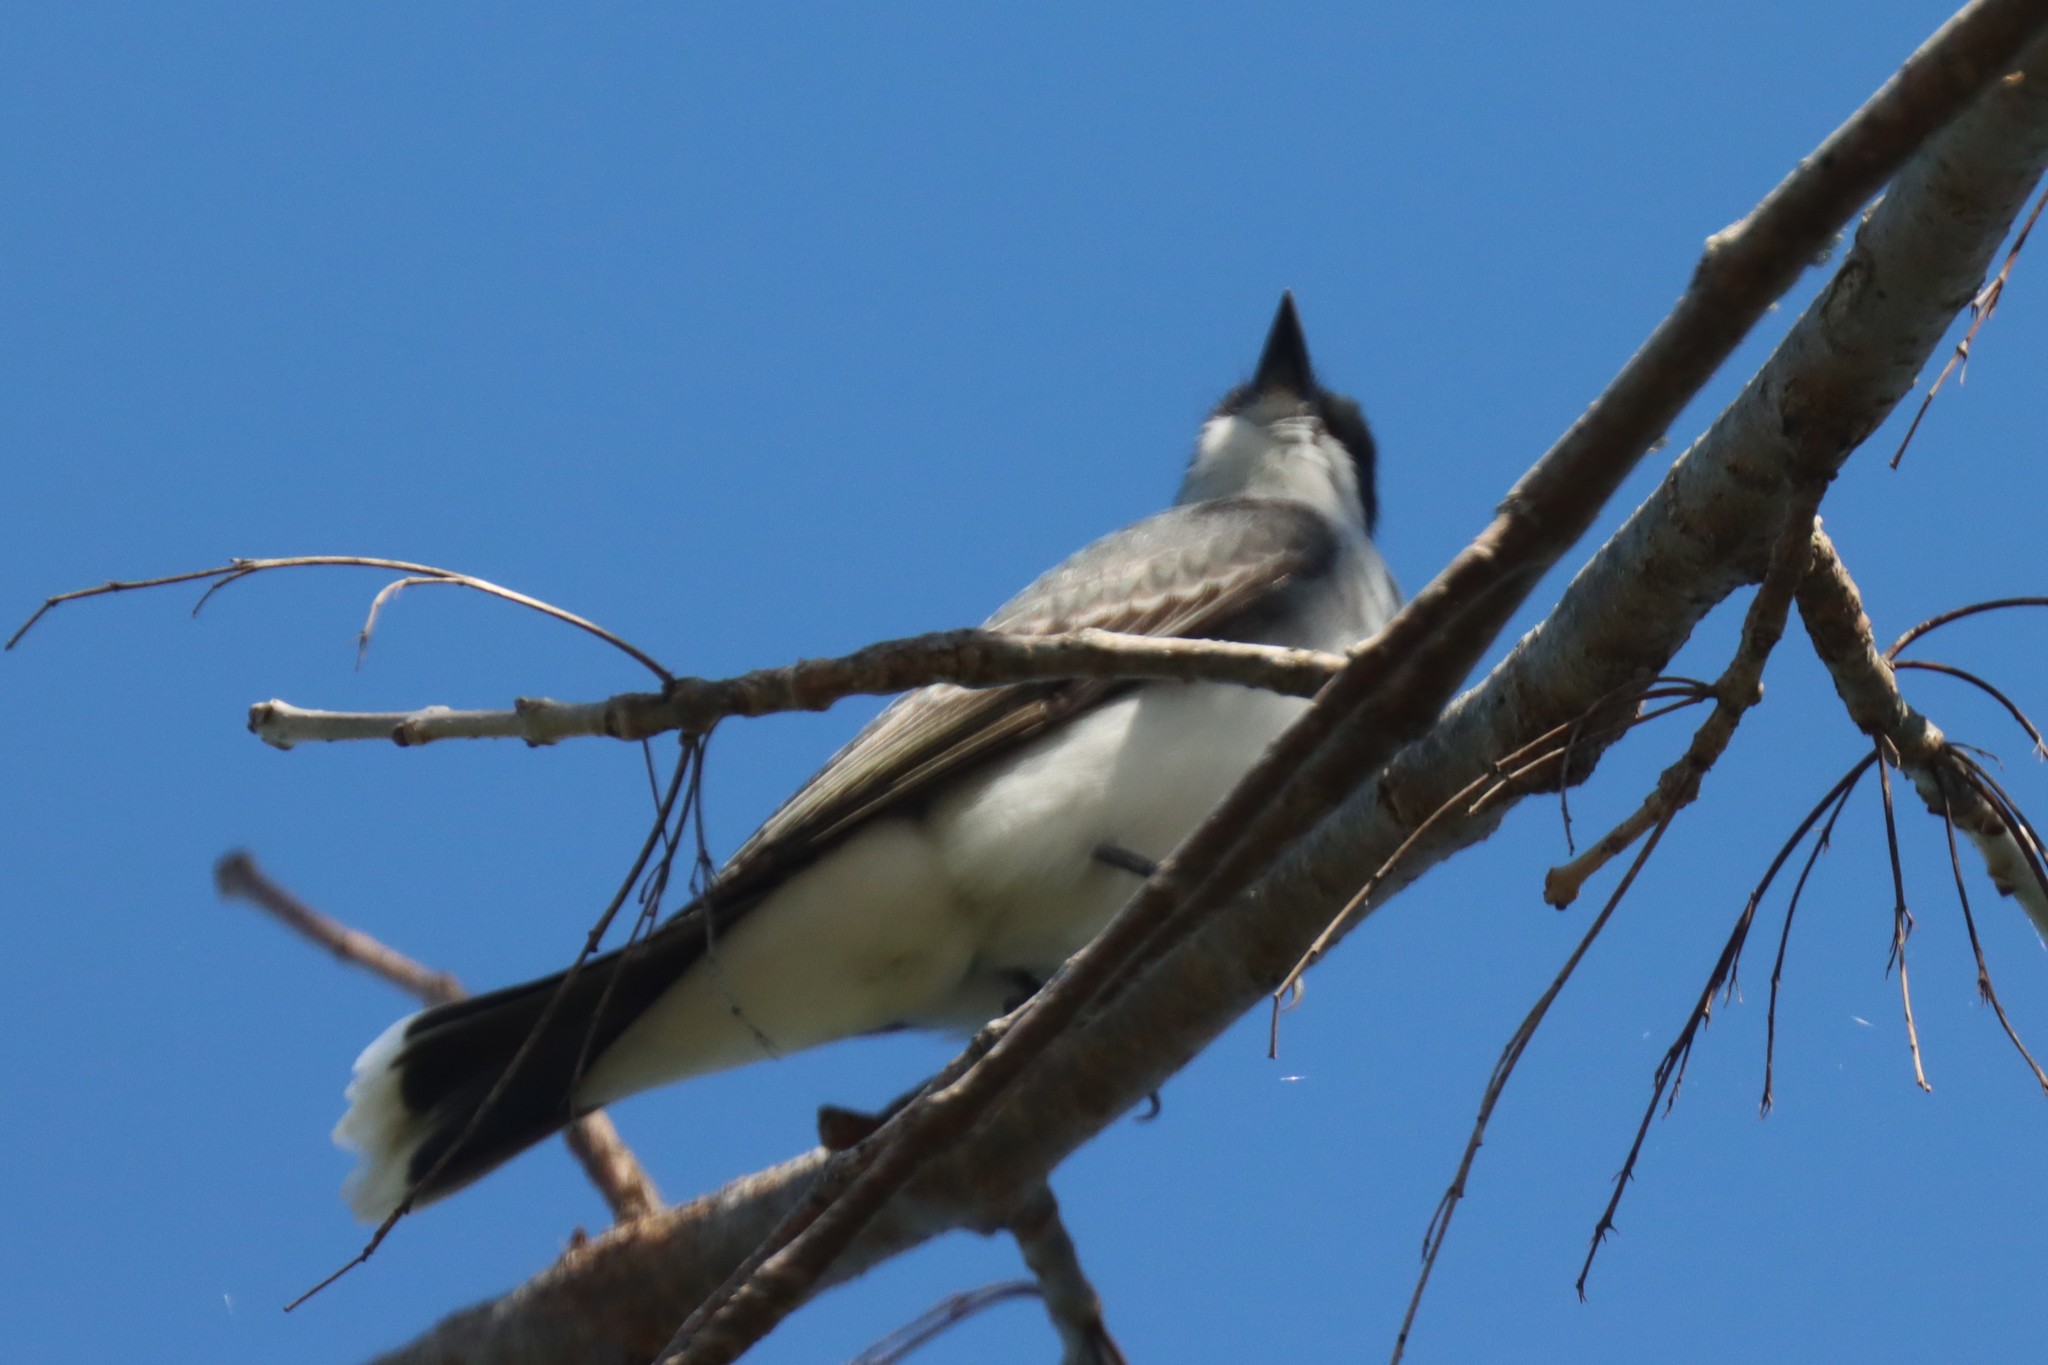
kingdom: Animalia
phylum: Chordata
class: Aves
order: Passeriformes
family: Tyrannidae
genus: Tyrannus
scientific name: Tyrannus tyrannus
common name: Eastern kingbird
